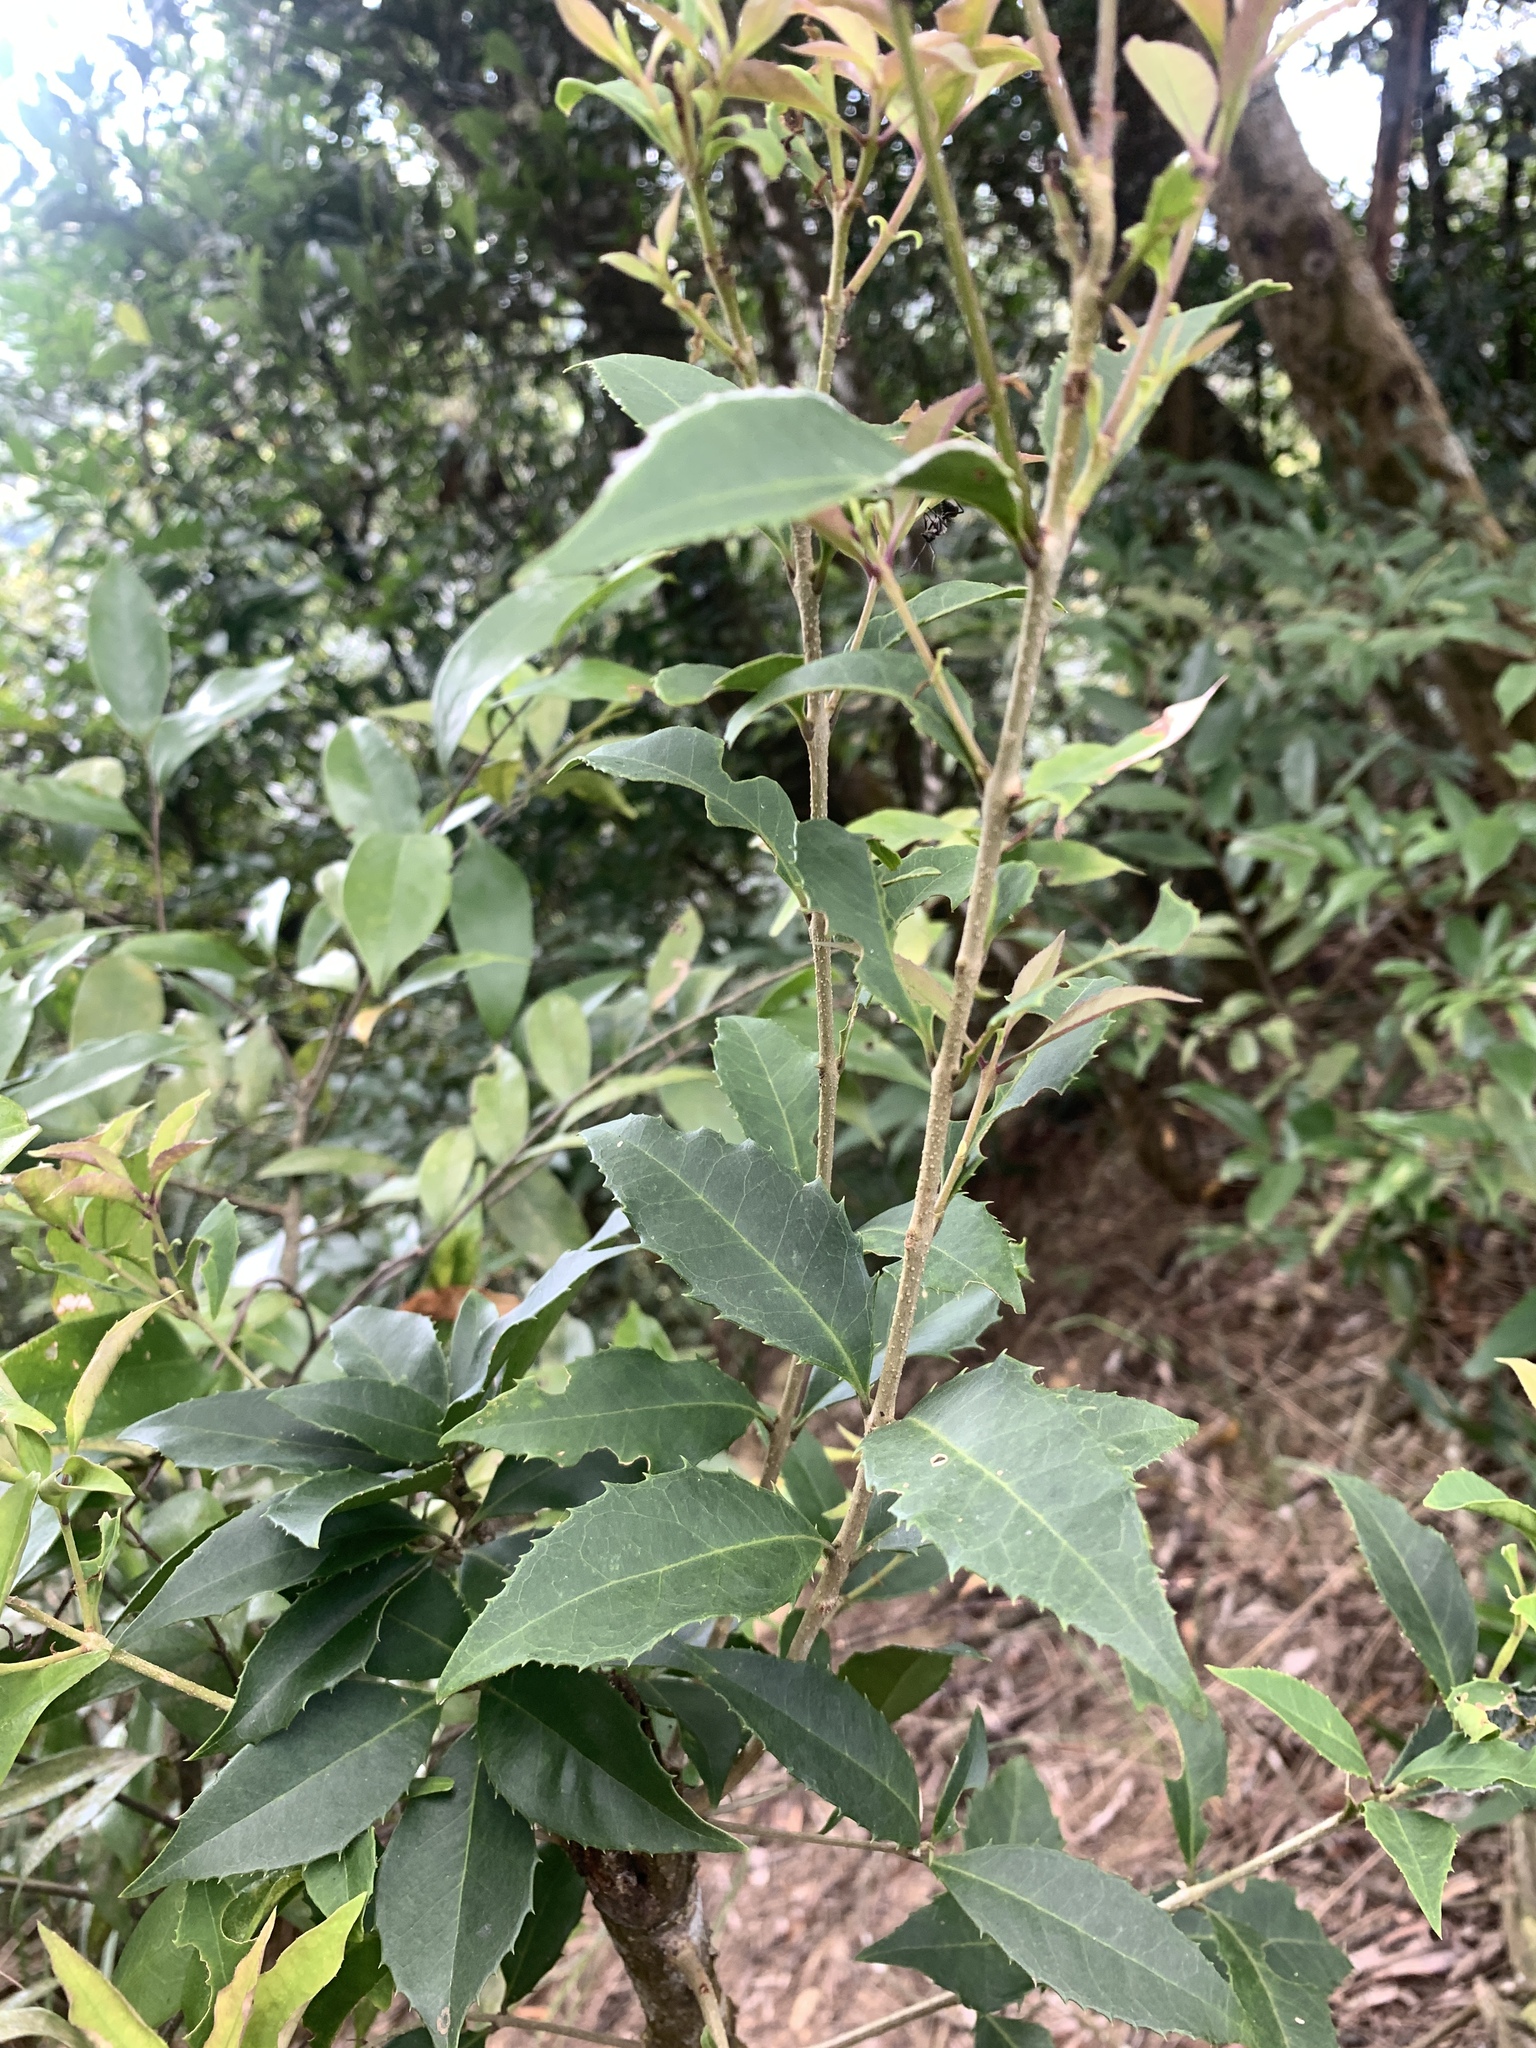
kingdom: Plantae
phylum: Tracheophyta
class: Magnoliopsida
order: Lamiales
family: Oleaceae
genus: Osmanthus
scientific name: Osmanthus enervius
